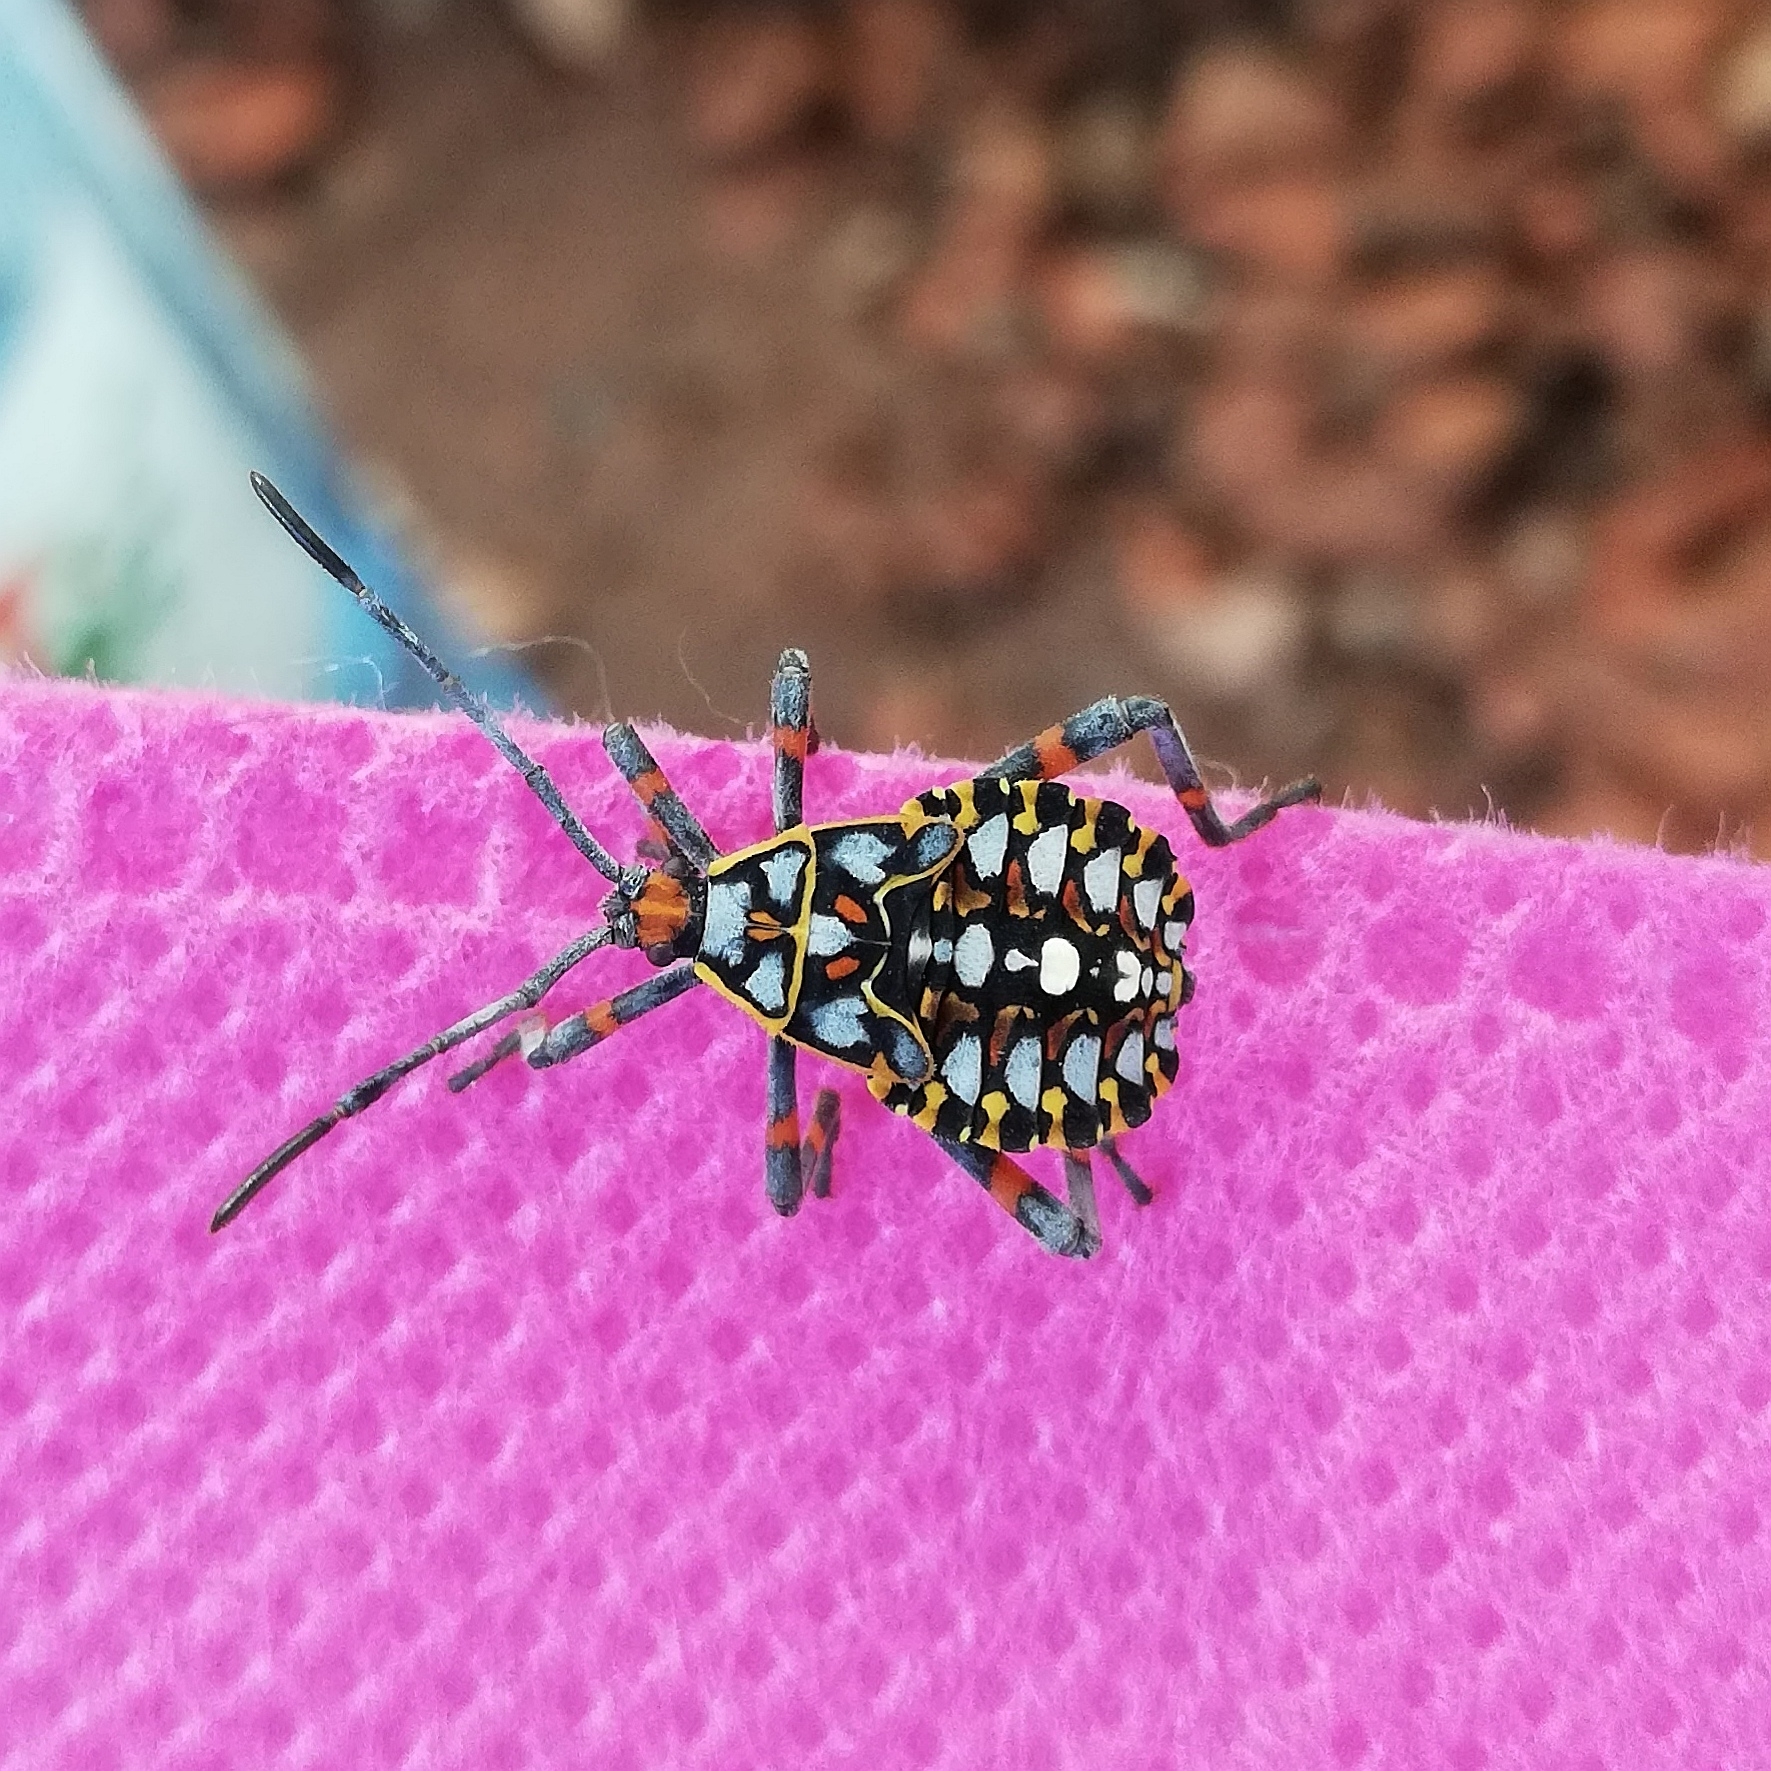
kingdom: Animalia
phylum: Arthropoda
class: Insecta
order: Hemiptera
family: Coreidae
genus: Pachylis
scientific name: Pachylis argentinus
